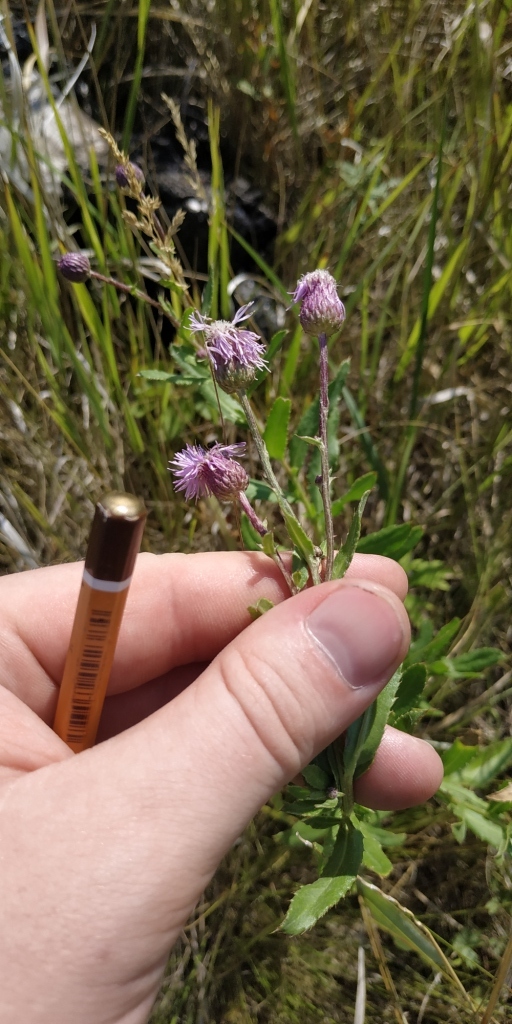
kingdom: Plantae
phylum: Tracheophyta
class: Magnoliopsida
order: Asterales
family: Asteraceae
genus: Cirsium
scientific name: Cirsium arvense
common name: Creeping thistle
